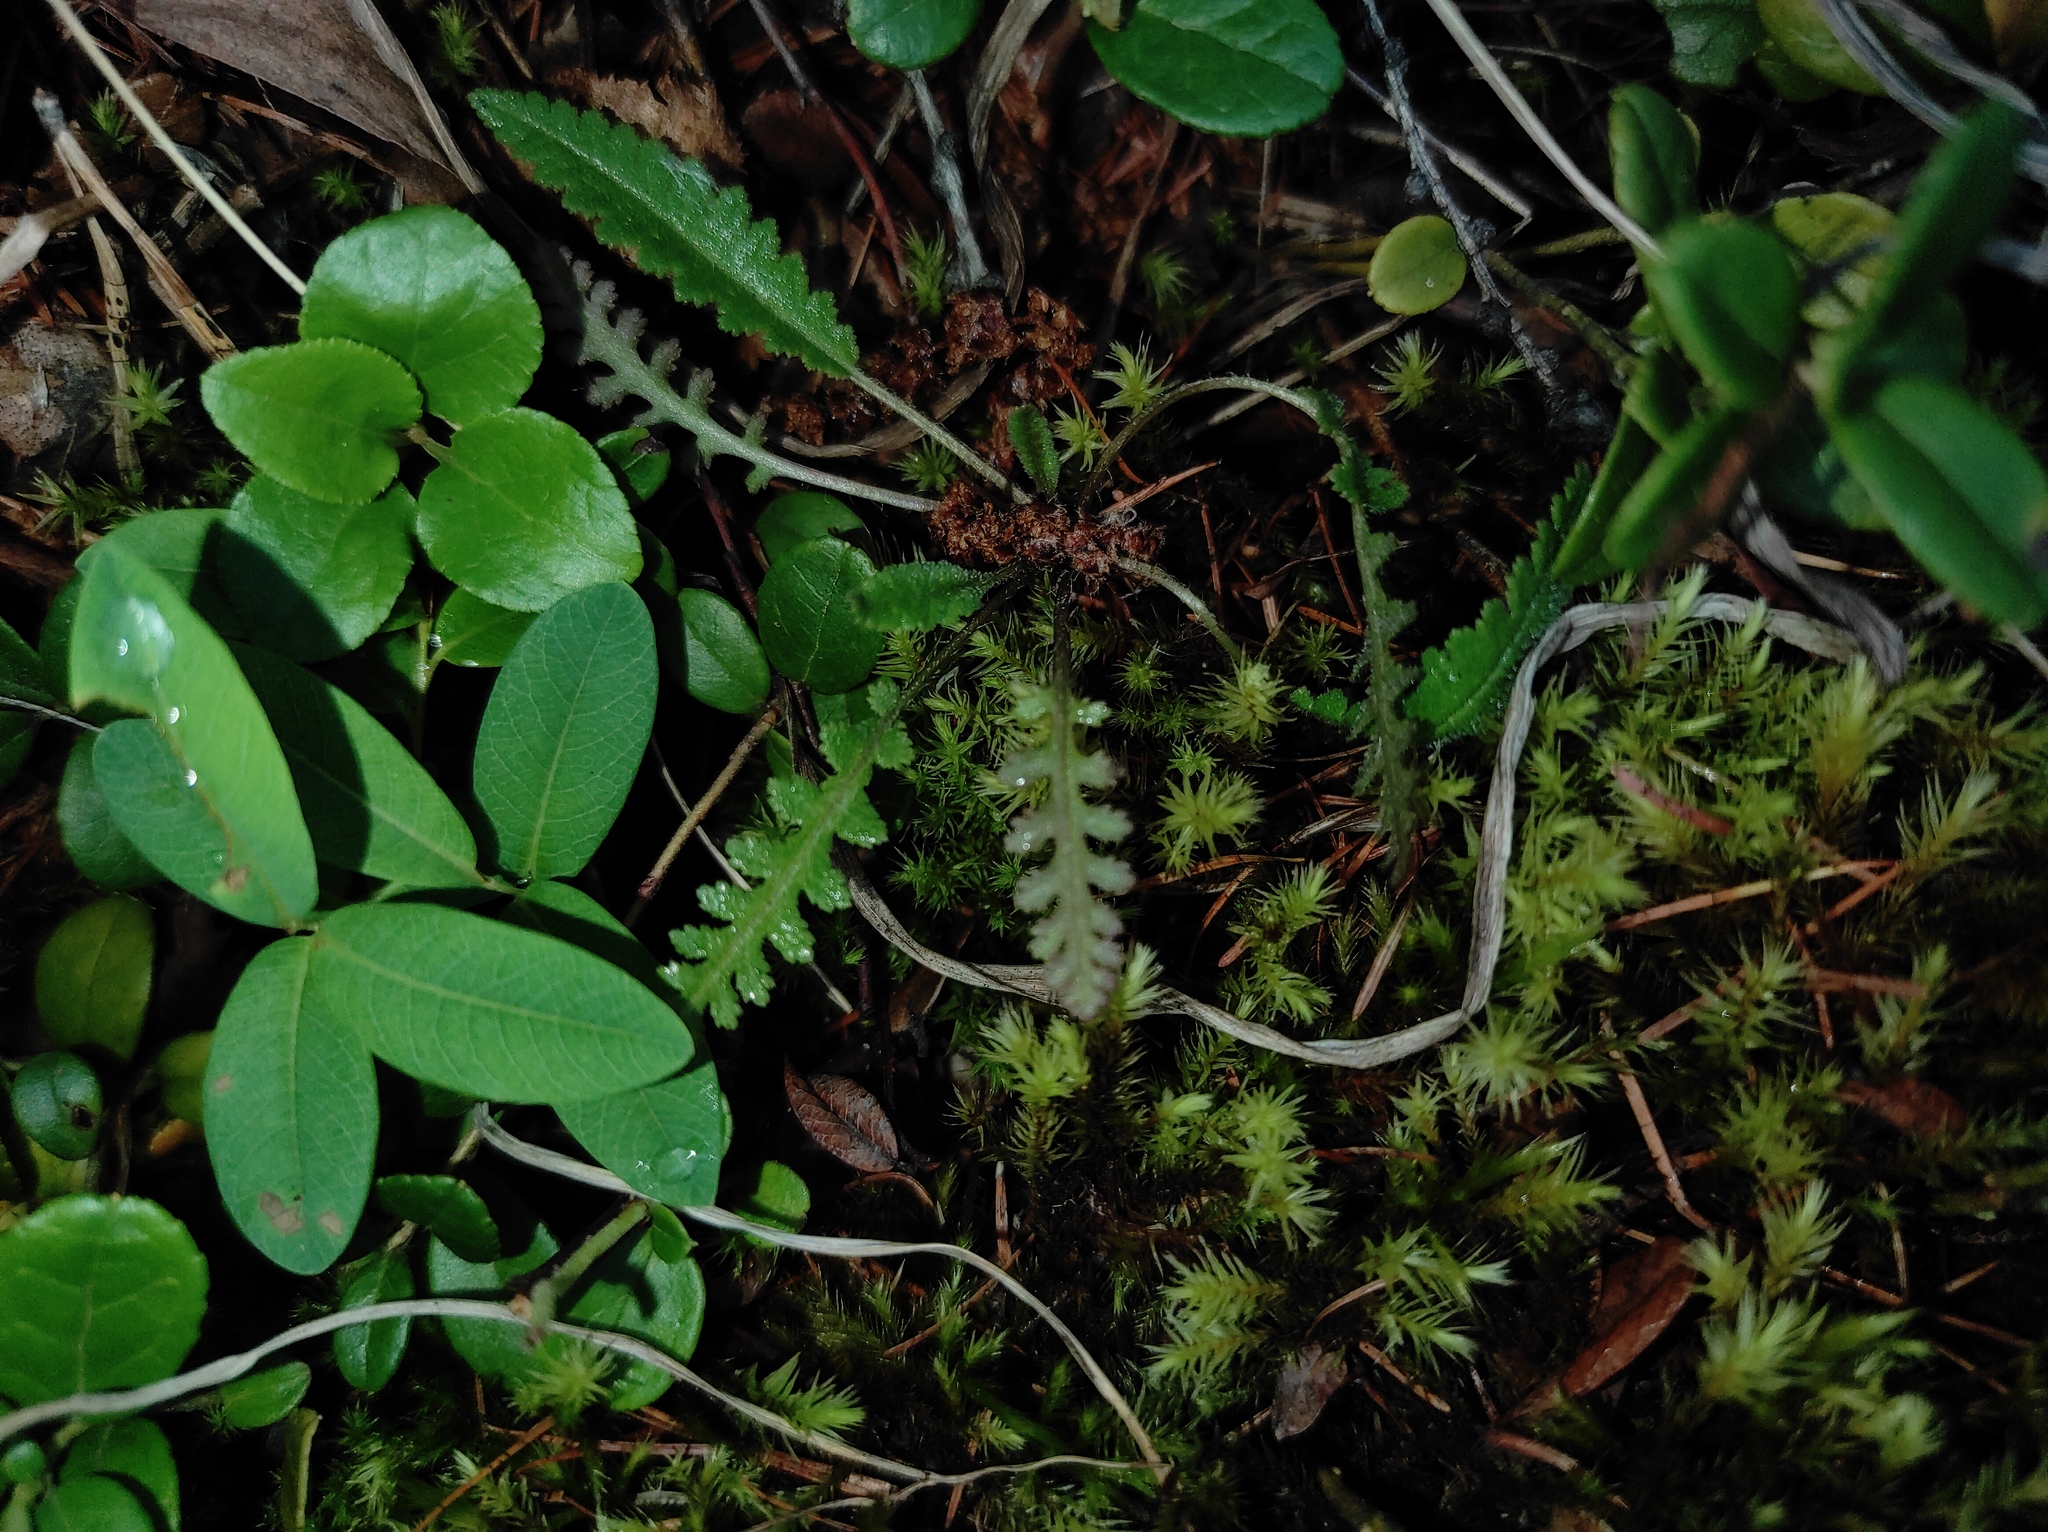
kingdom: Plantae
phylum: Tracheophyta
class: Magnoliopsida
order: Ericales
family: Ericaceae
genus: Orthilia
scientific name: Orthilia secunda
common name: One-sided orthilia
